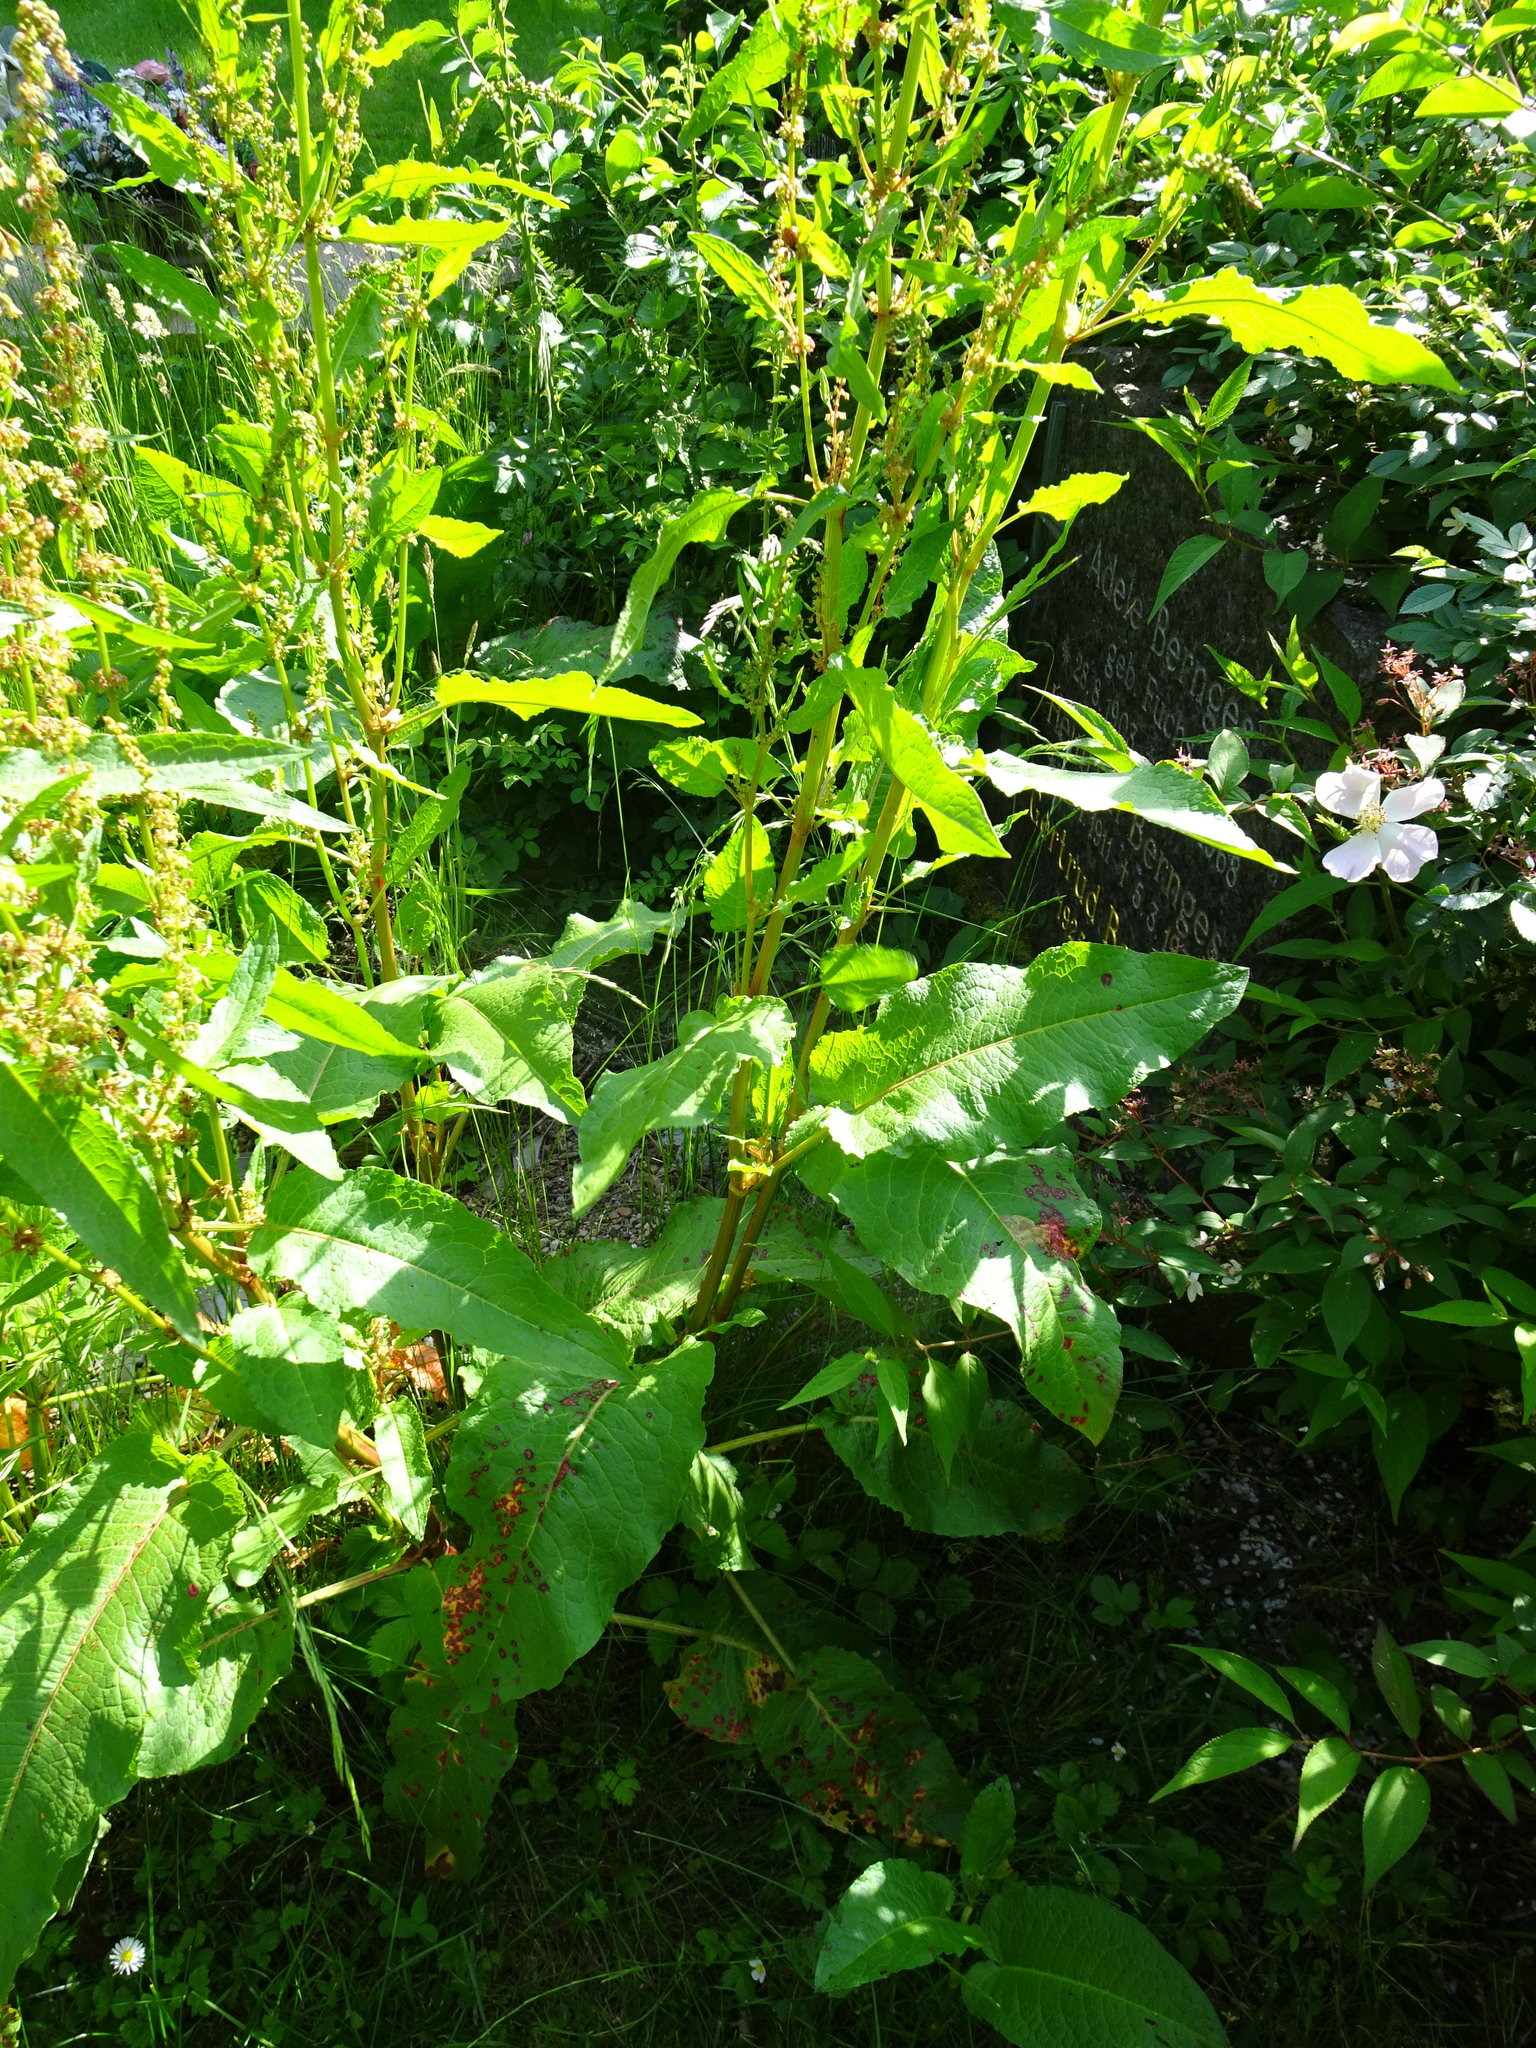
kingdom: Plantae
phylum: Tracheophyta
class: Magnoliopsida
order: Caryophyllales
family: Polygonaceae
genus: Rumex
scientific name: Rumex obtusifolius
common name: Bitter dock
